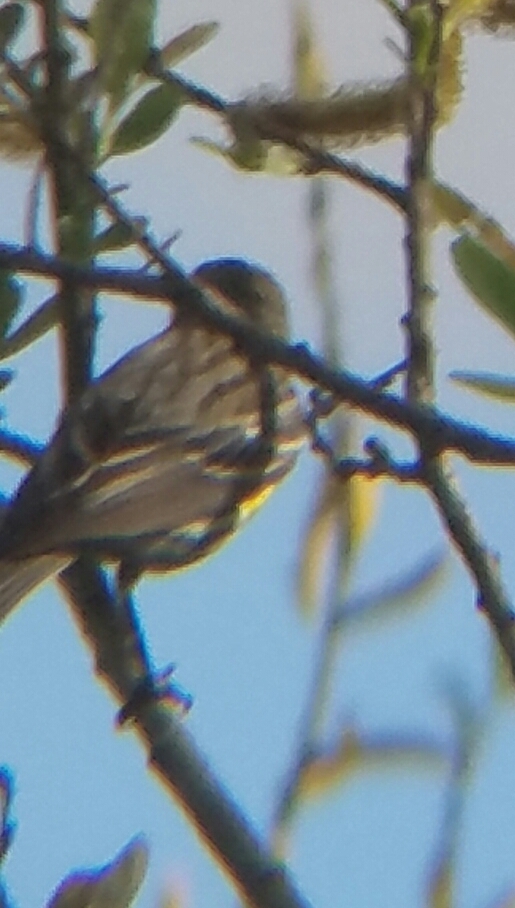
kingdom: Animalia
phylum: Chordata
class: Aves
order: Passeriformes
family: Parulidae
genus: Setophaga
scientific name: Setophaga coronata
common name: Myrtle warbler
